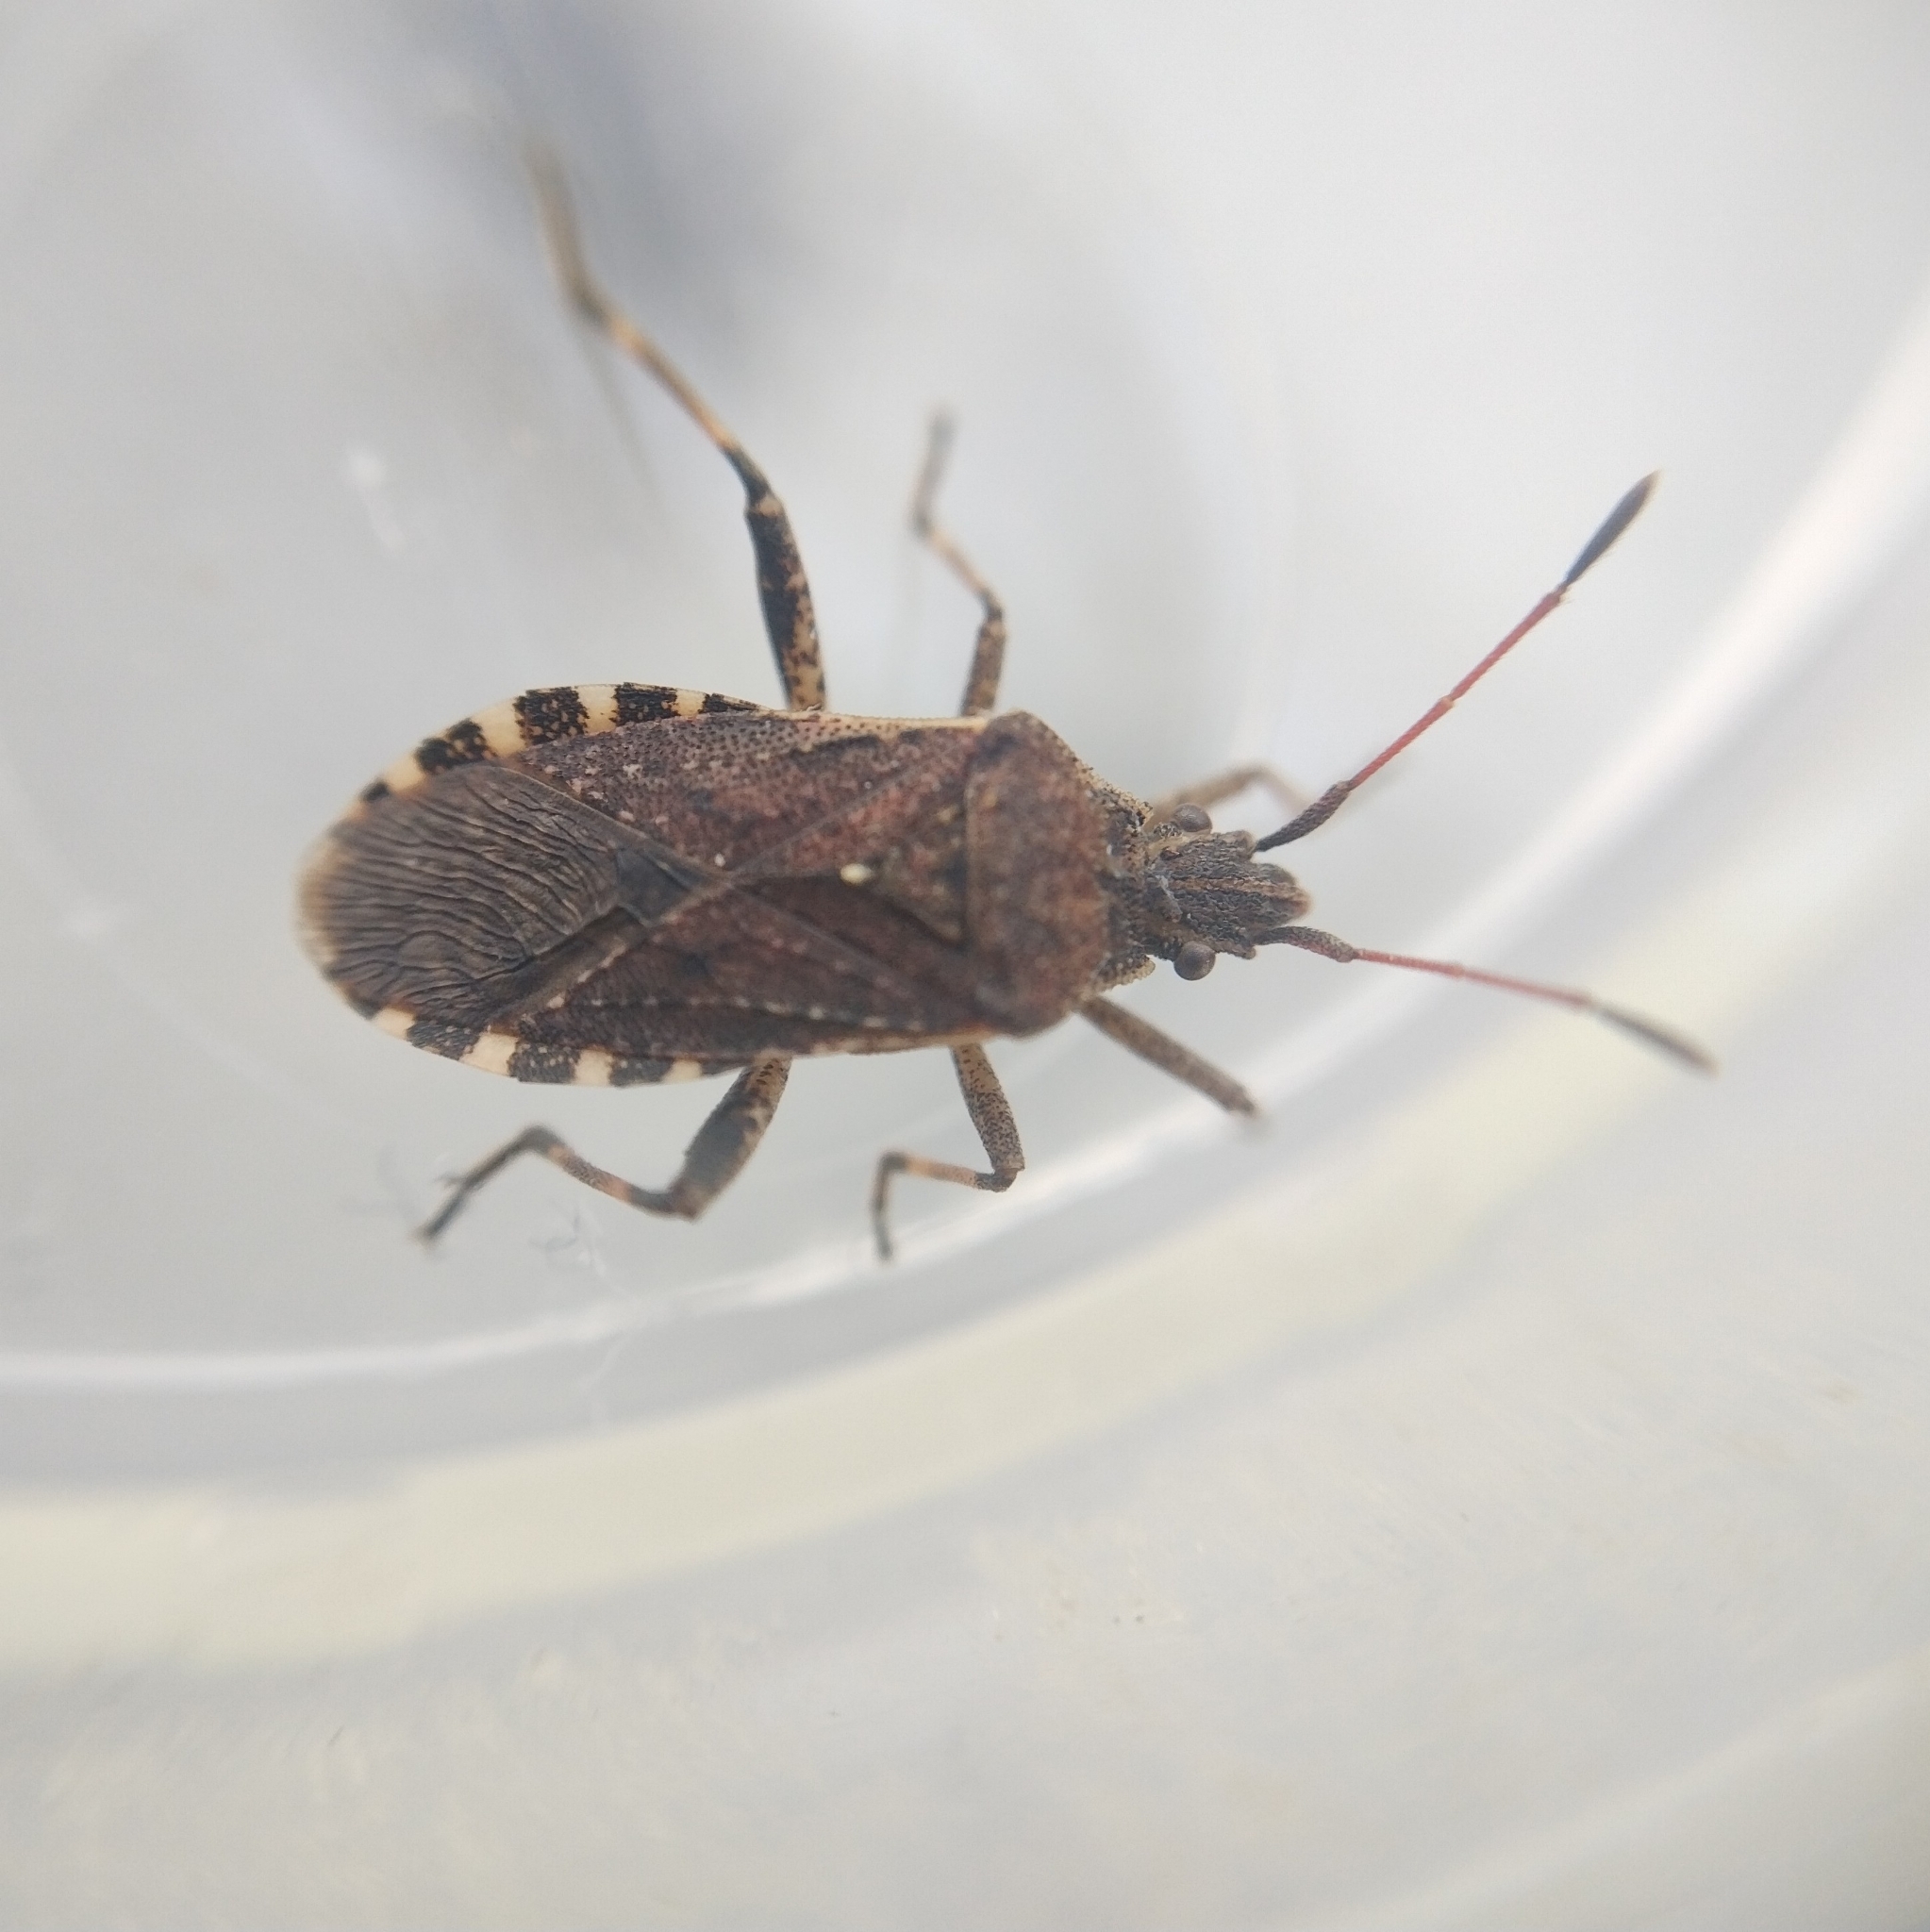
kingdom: Animalia
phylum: Arthropoda
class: Insecta
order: Hemiptera
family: Coreidae
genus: Ceraleptus
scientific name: Ceraleptus gracilicornis
